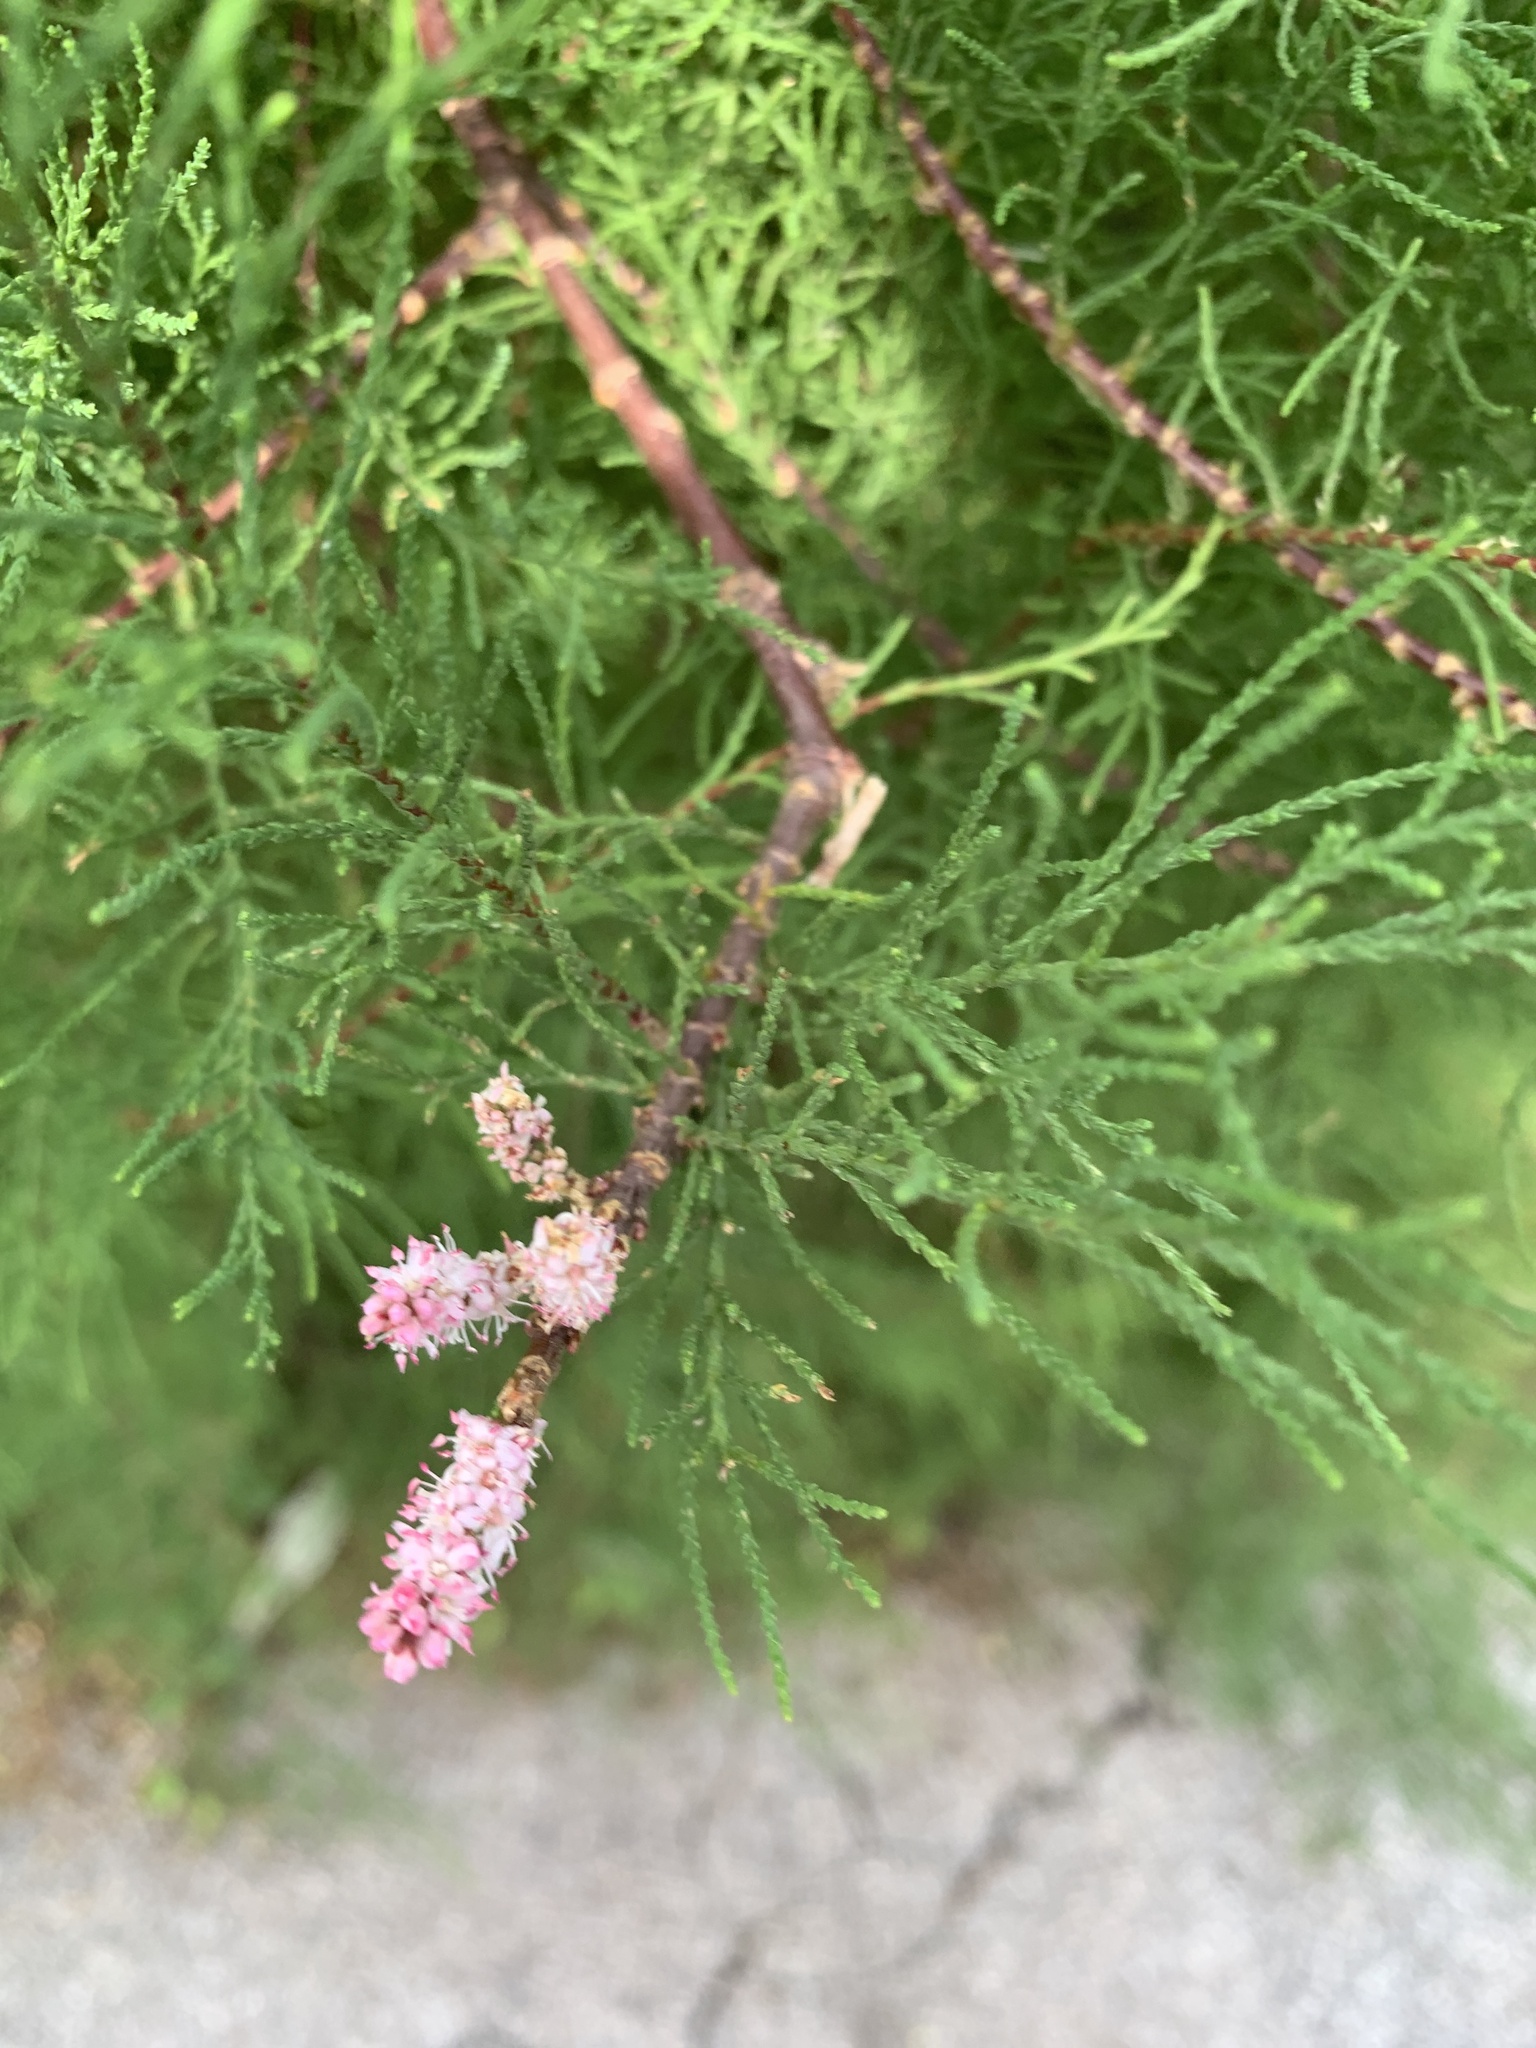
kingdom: Plantae
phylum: Tracheophyta
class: Magnoliopsida
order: Caryophyllales
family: Tamaricaceae
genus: Tamarix
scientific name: Tamarix gallica
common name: Tamarisk
